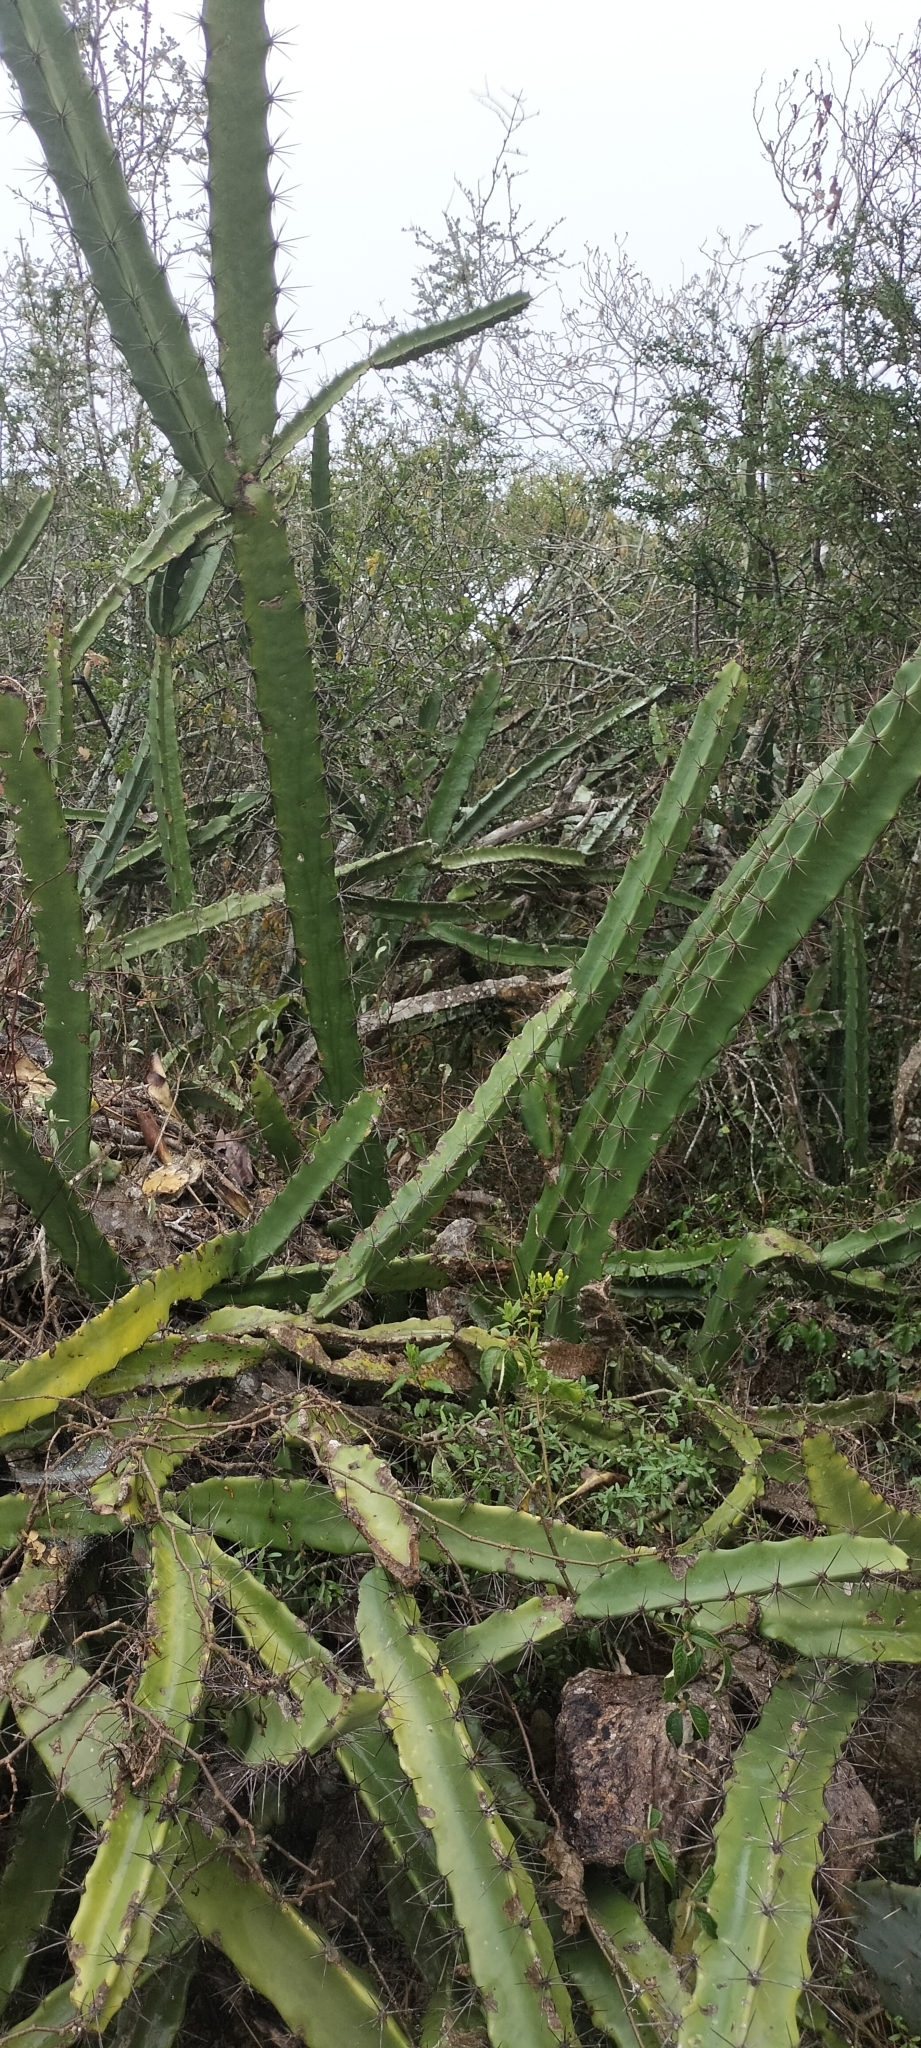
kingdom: Plantae
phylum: Tracheophyta
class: Magnoliopsida
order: Caryophyllales
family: Cactaceae
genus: Acanthocereus
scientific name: Acanthocereus tetragonus
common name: Triangle cactus
